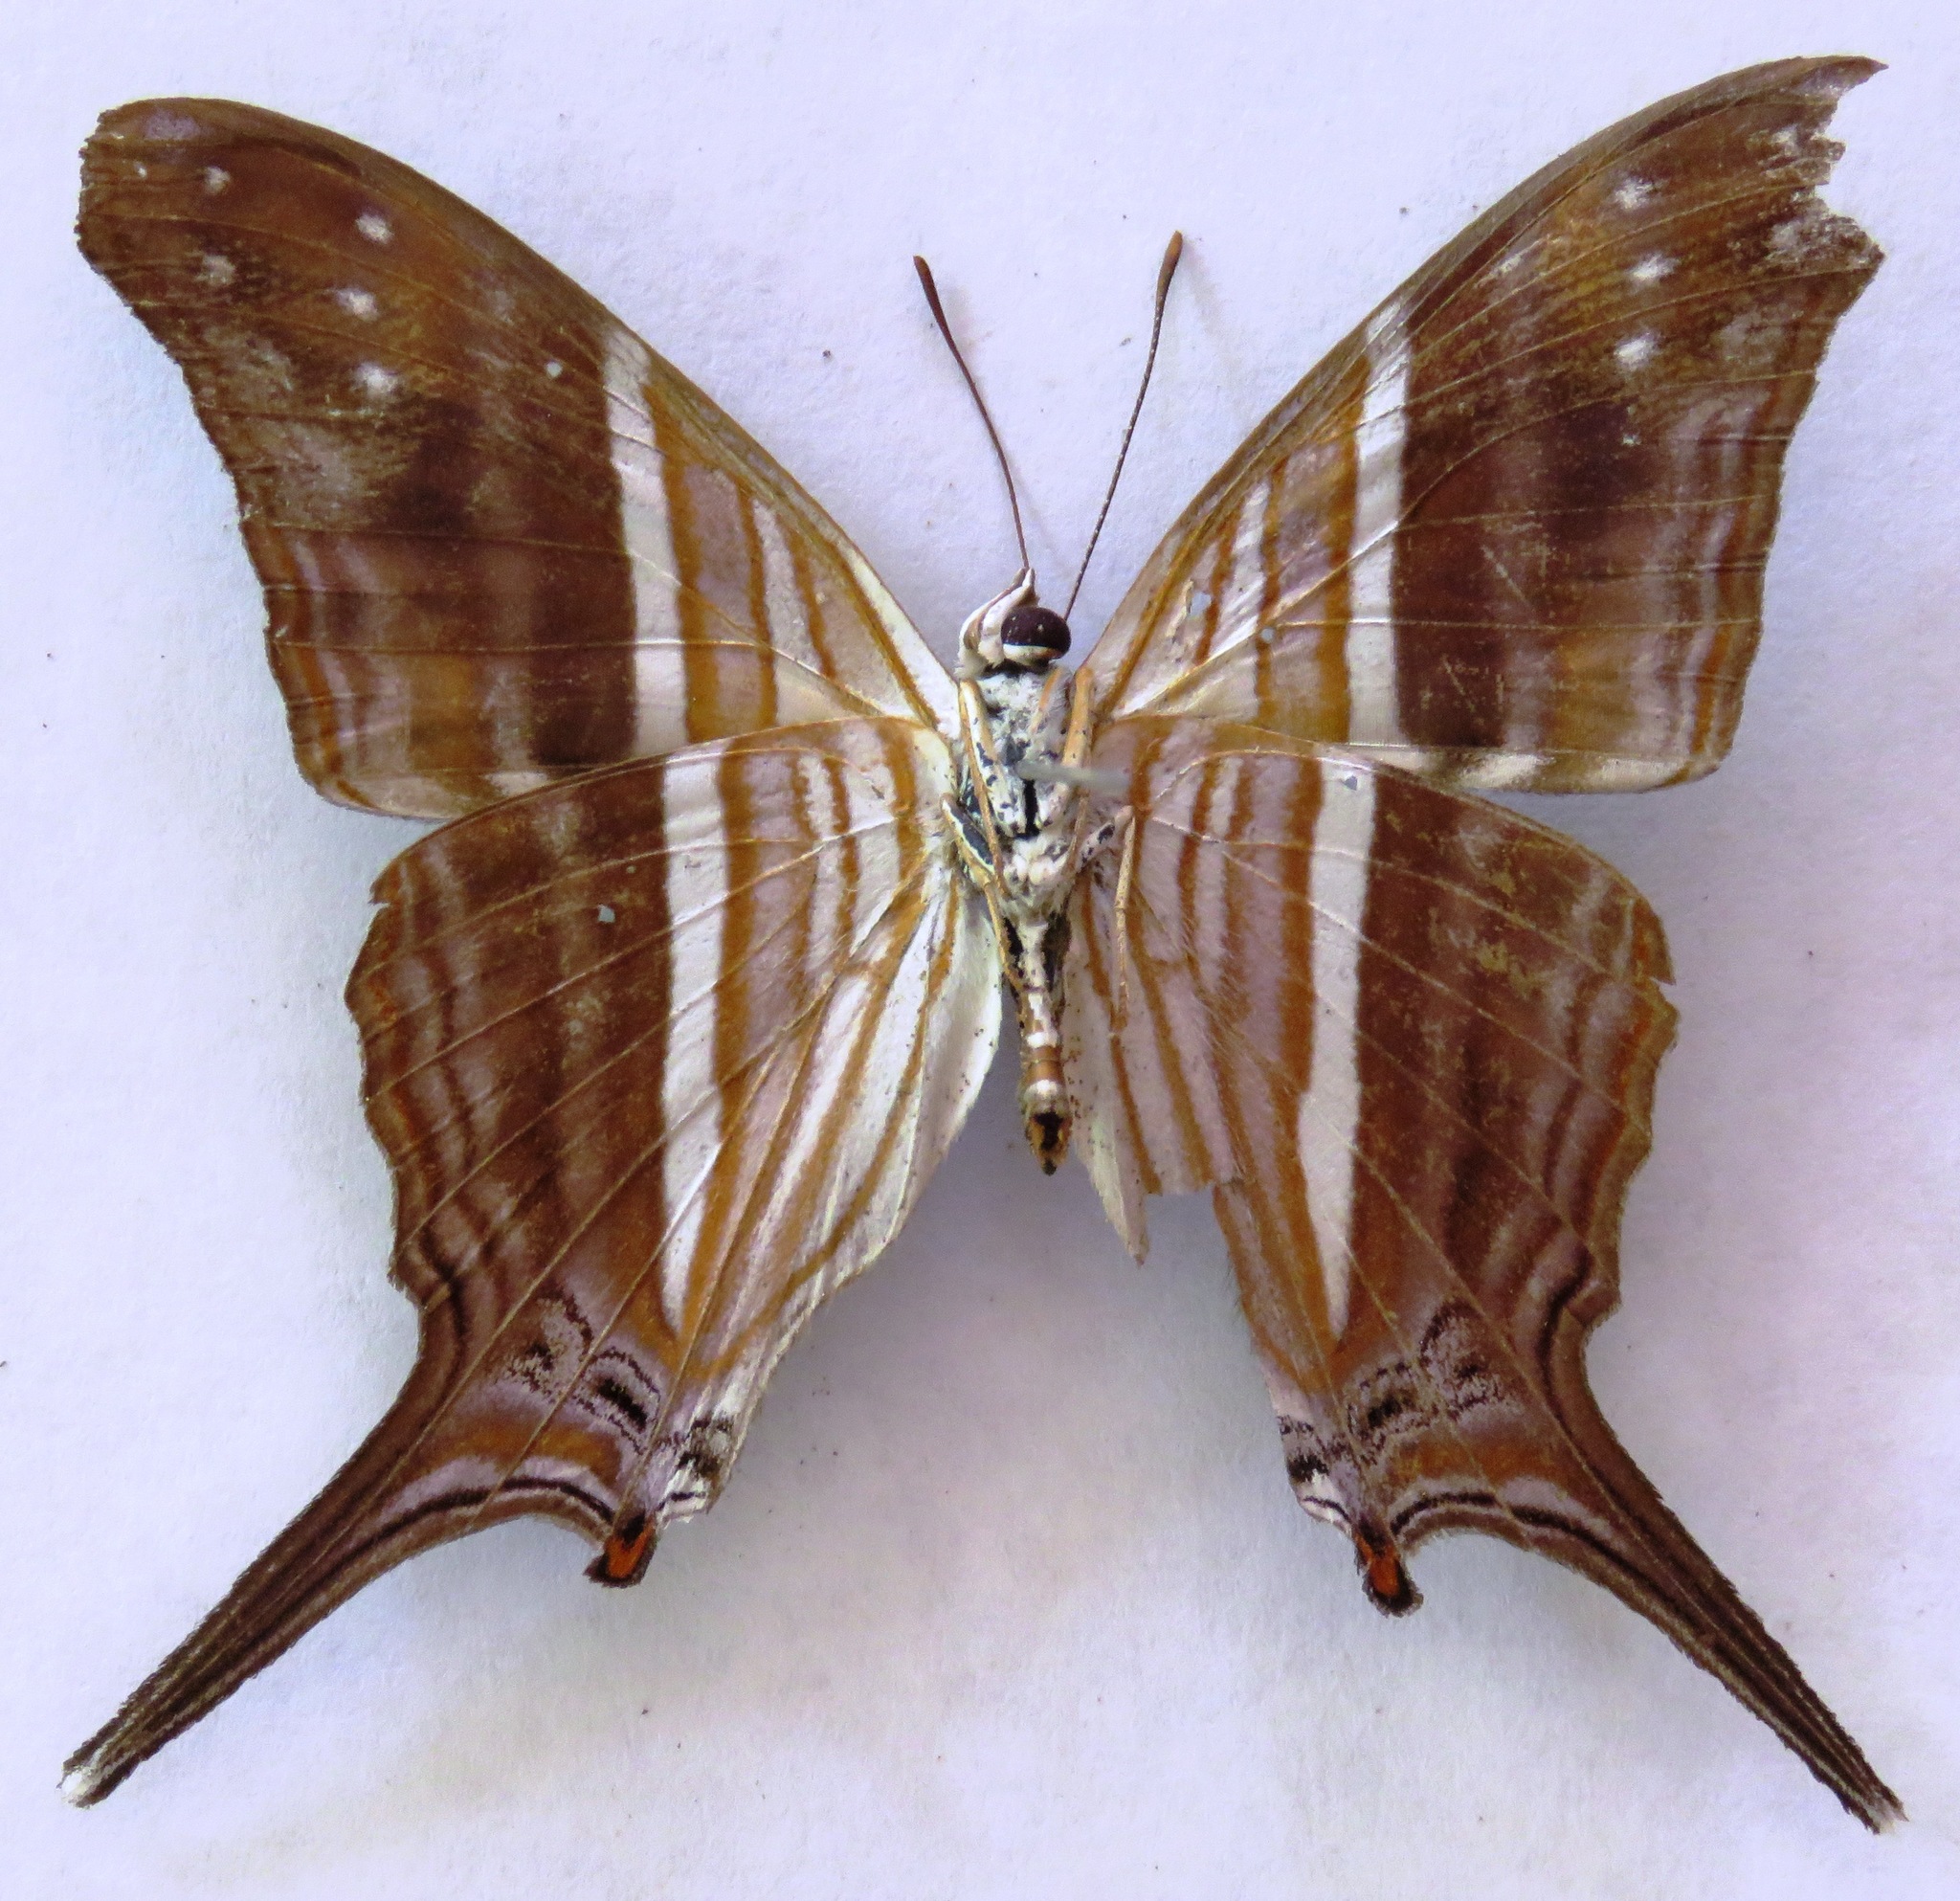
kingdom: Animalia
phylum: Arthropoda
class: Insecta
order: Lepidoptera
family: Nymphalidae
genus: Marpesia
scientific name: Marpesia chiron
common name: Many-banded daggerwing
